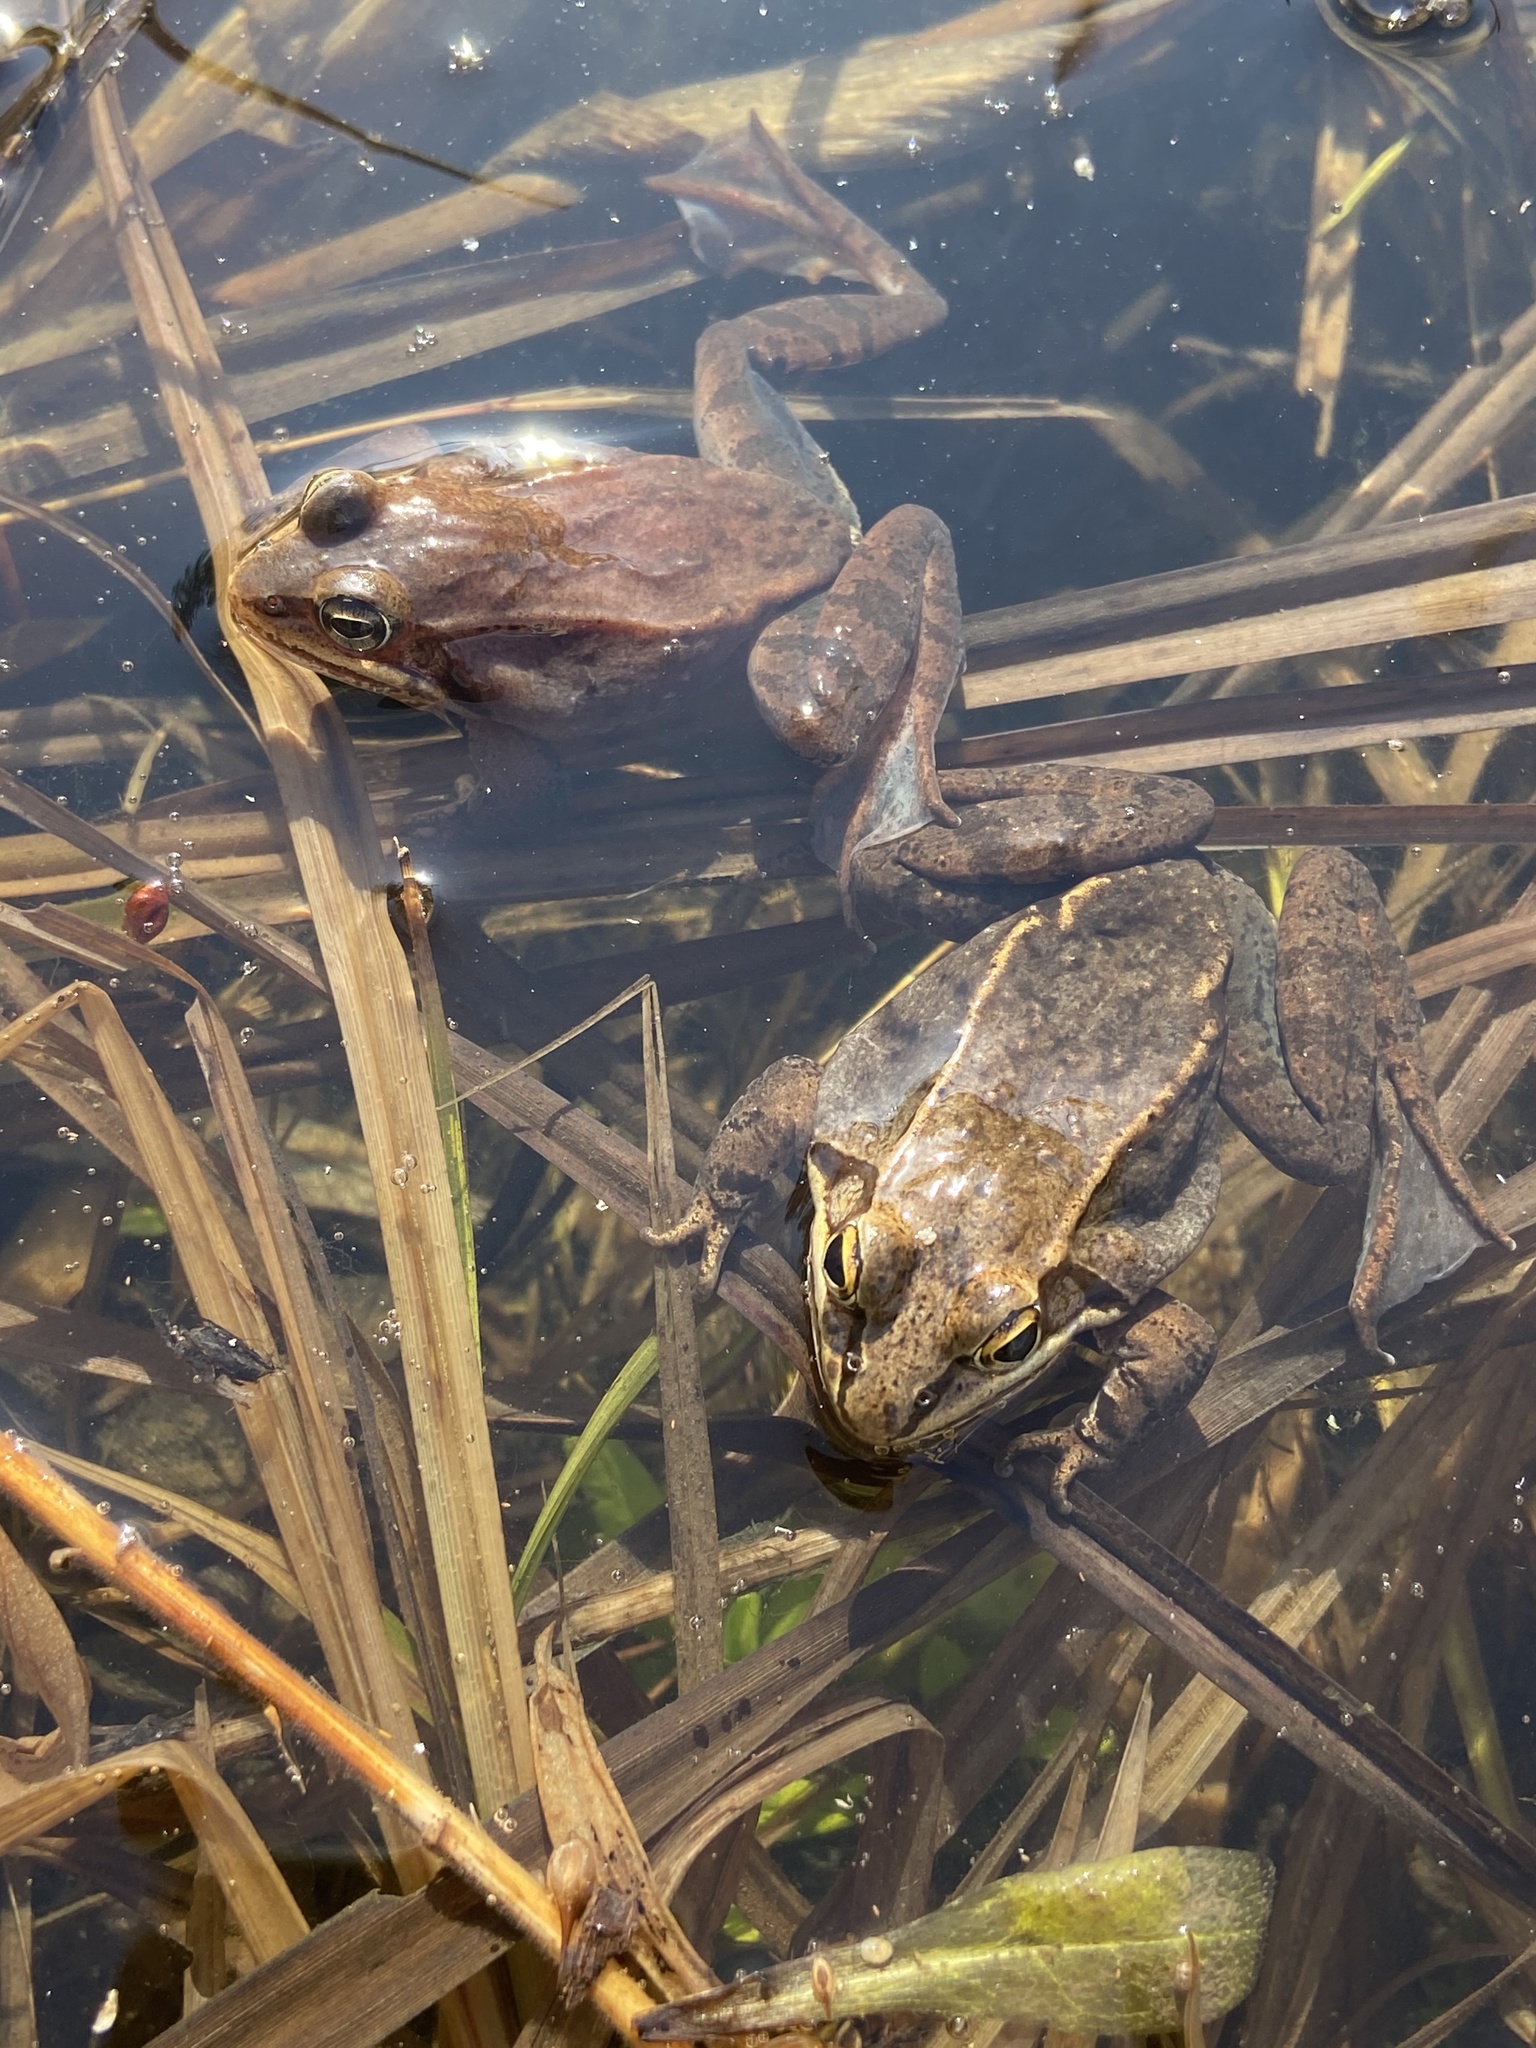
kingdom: Animalia
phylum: Chordata
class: Amphibia
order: Anura
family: Ranidae
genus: Lithobates
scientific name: Lithobates sylvaticus
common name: Wood frog
